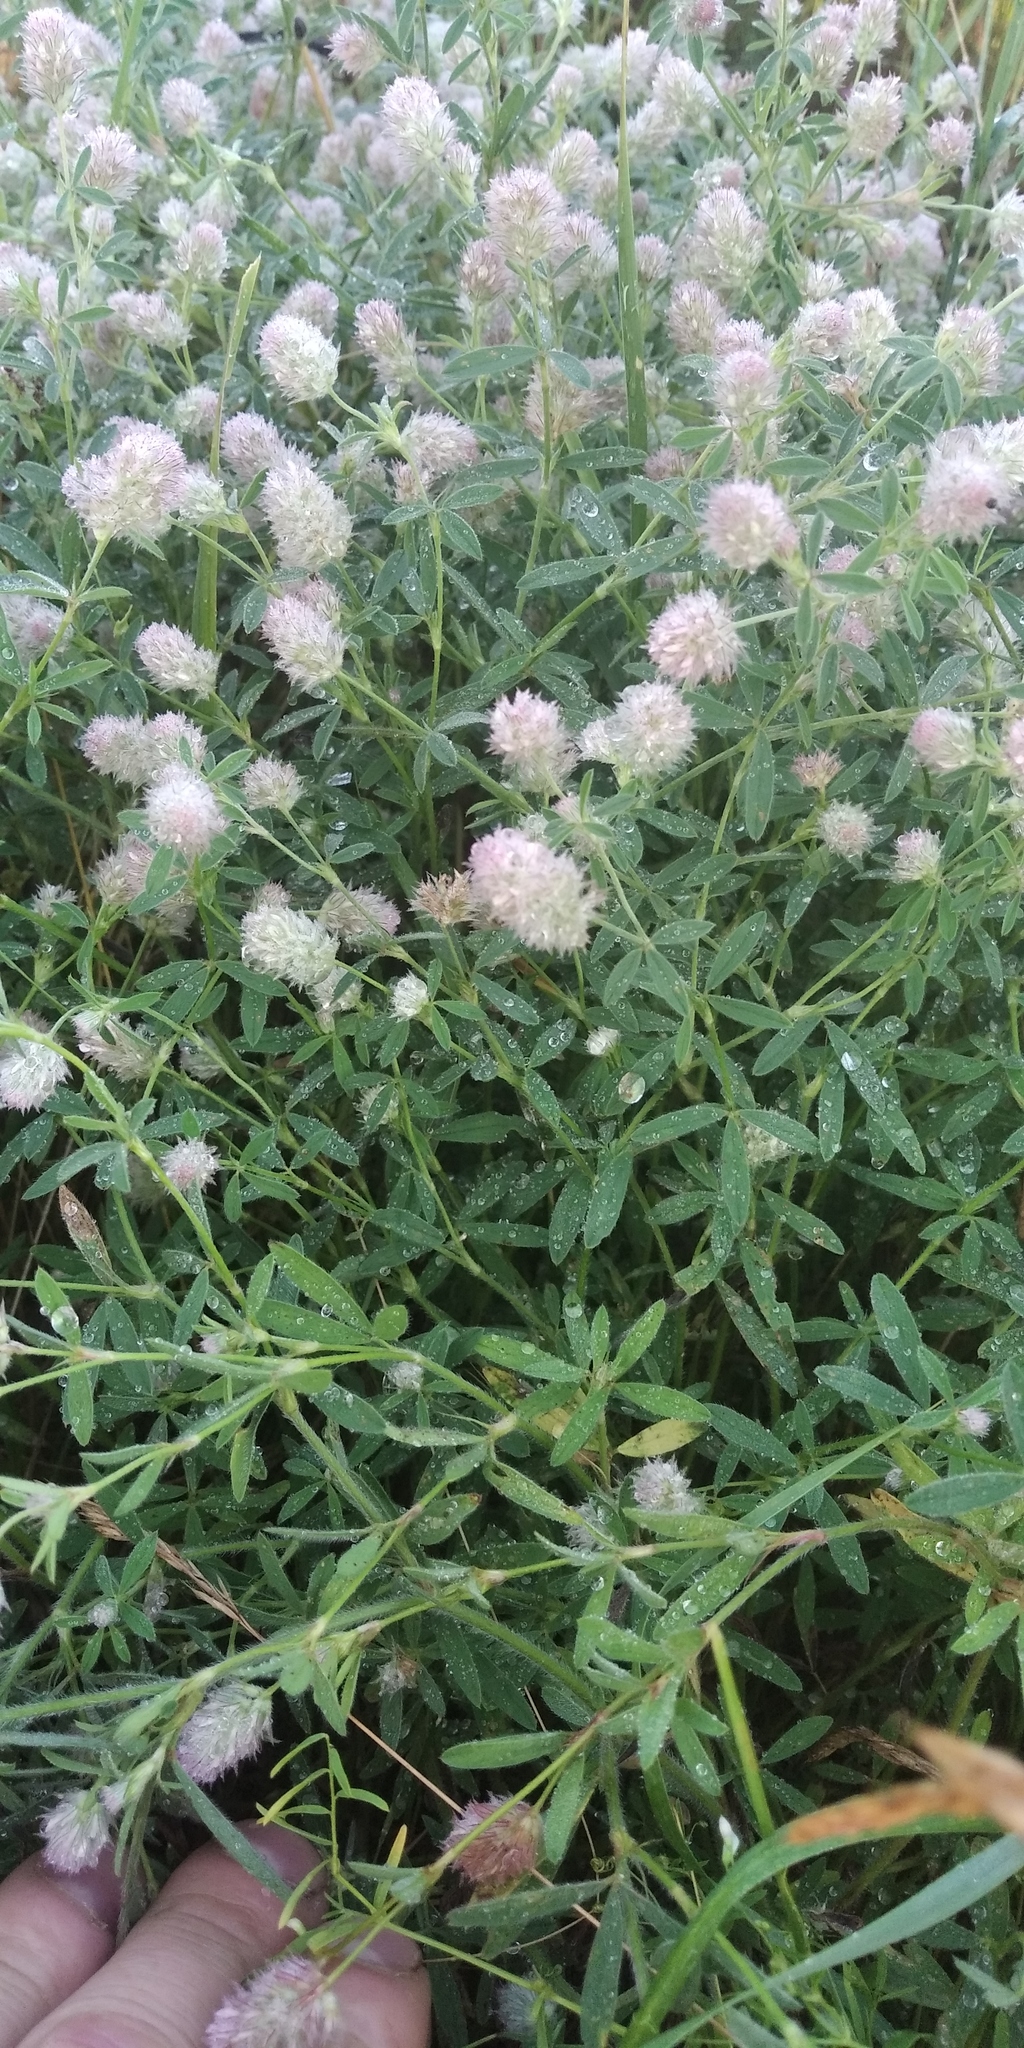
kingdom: Plantae
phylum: Tracheophyta
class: Magnoliopsida
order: Fabales
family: Fabaceae
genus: Trifolium
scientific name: Trifolium arvense
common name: Hare's-foot clover
